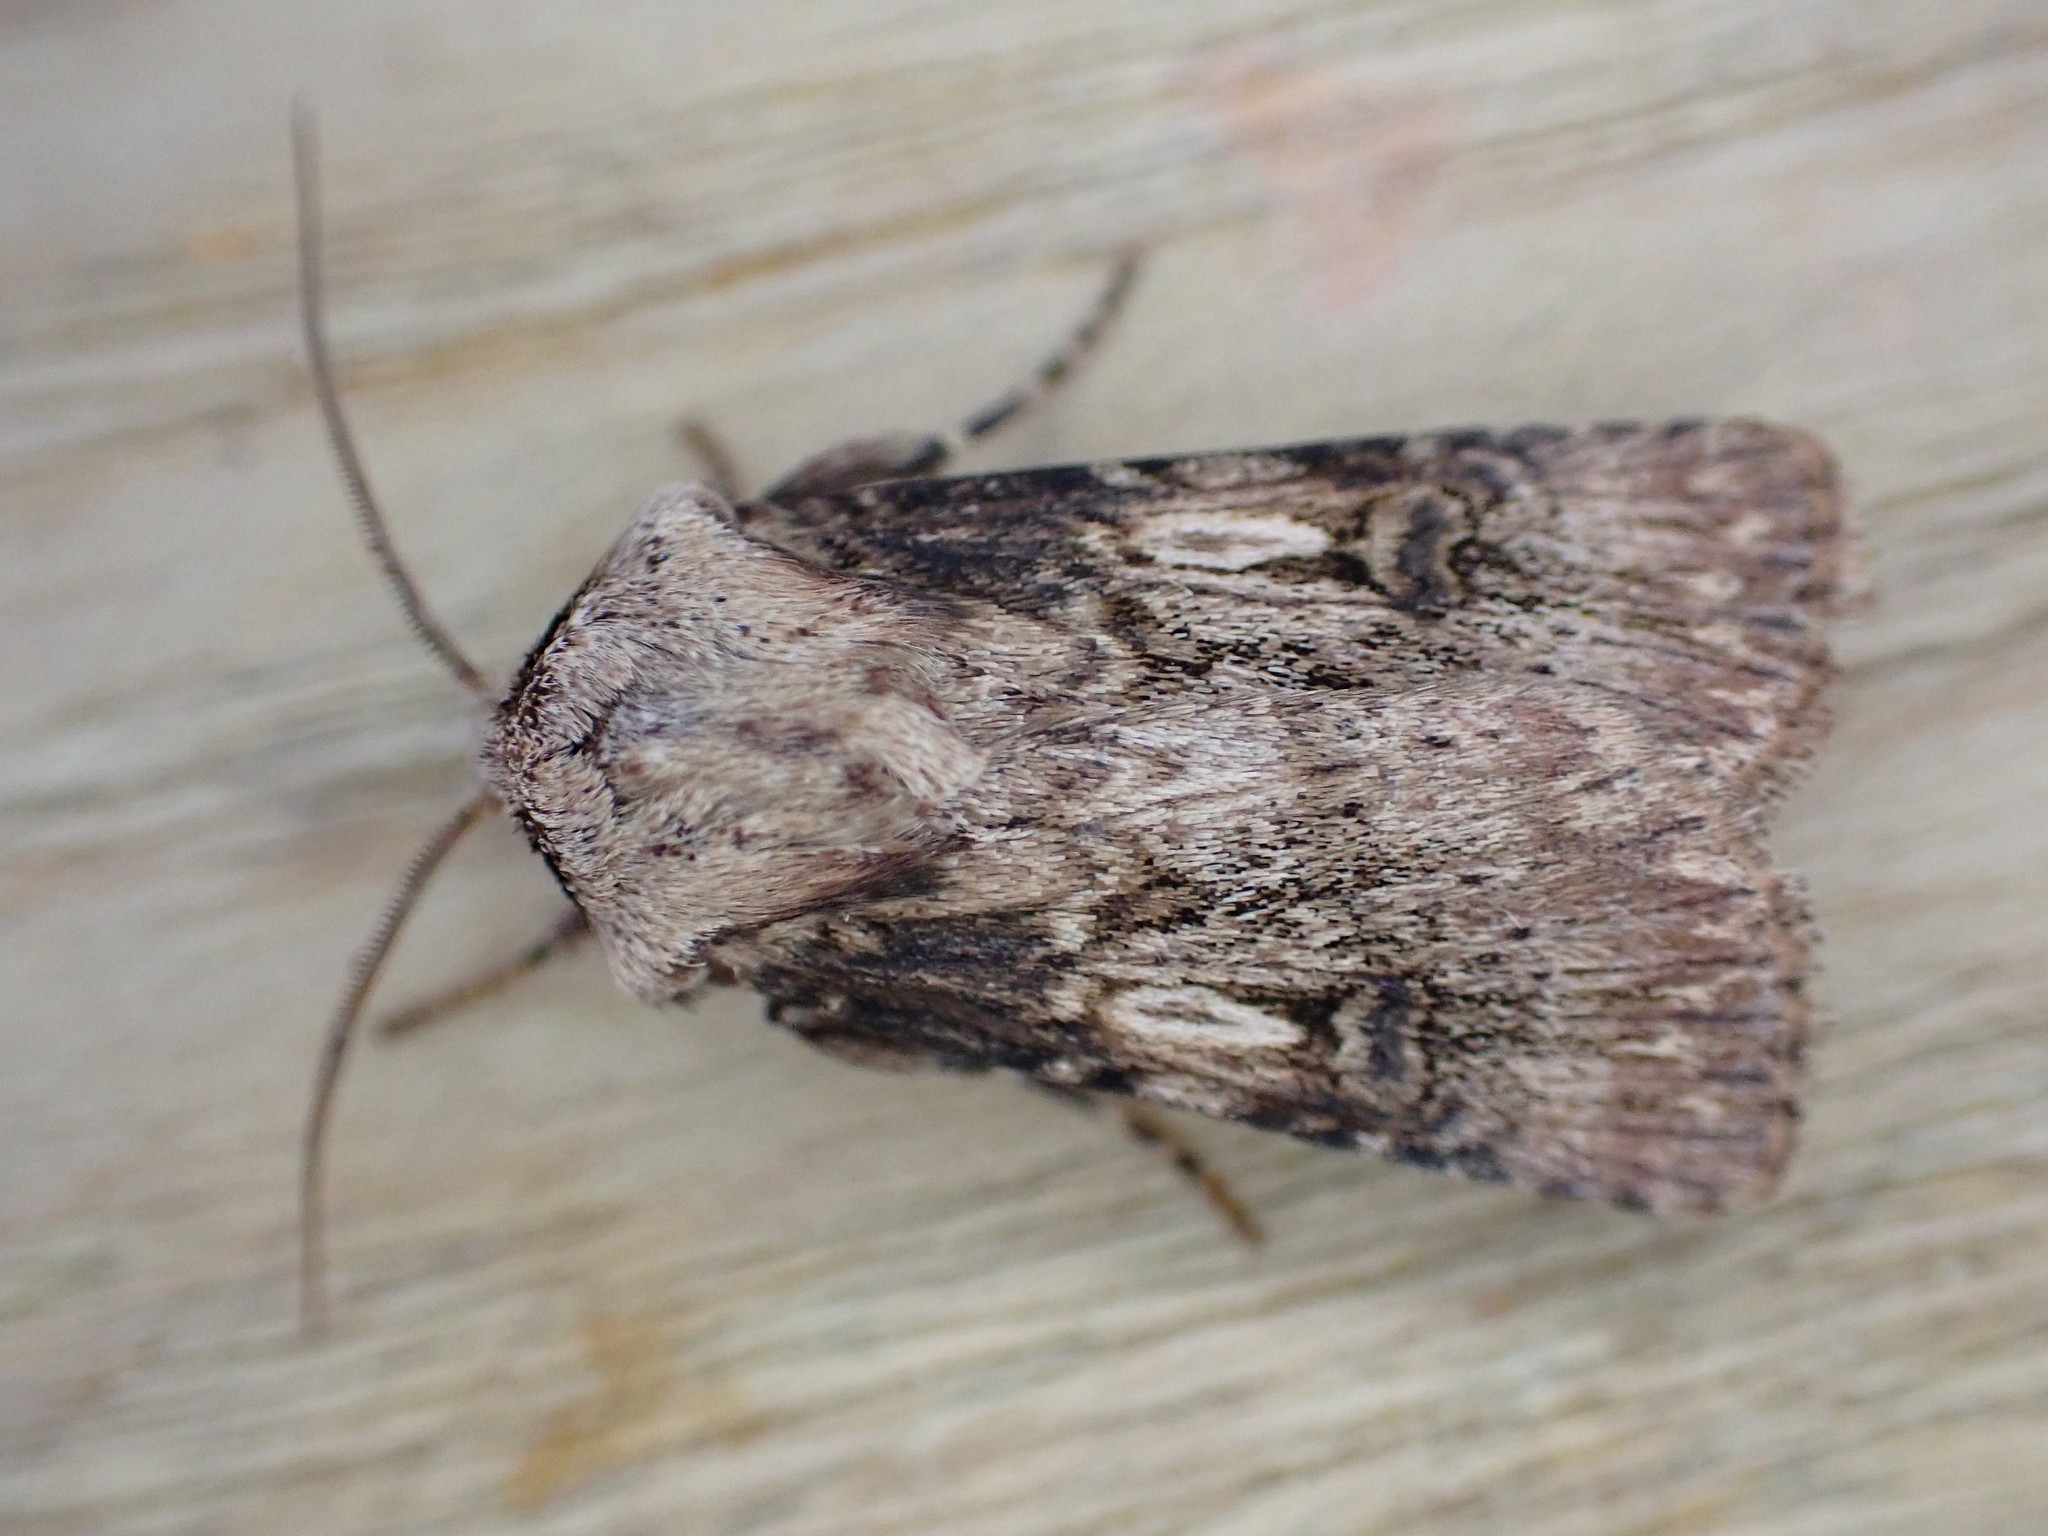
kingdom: Animalia
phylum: Arthropoda
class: Insecta
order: Lepidoptera
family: Noctuidae
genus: Agrotis
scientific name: Agrotis puta
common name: Shuttle-shaped dart
